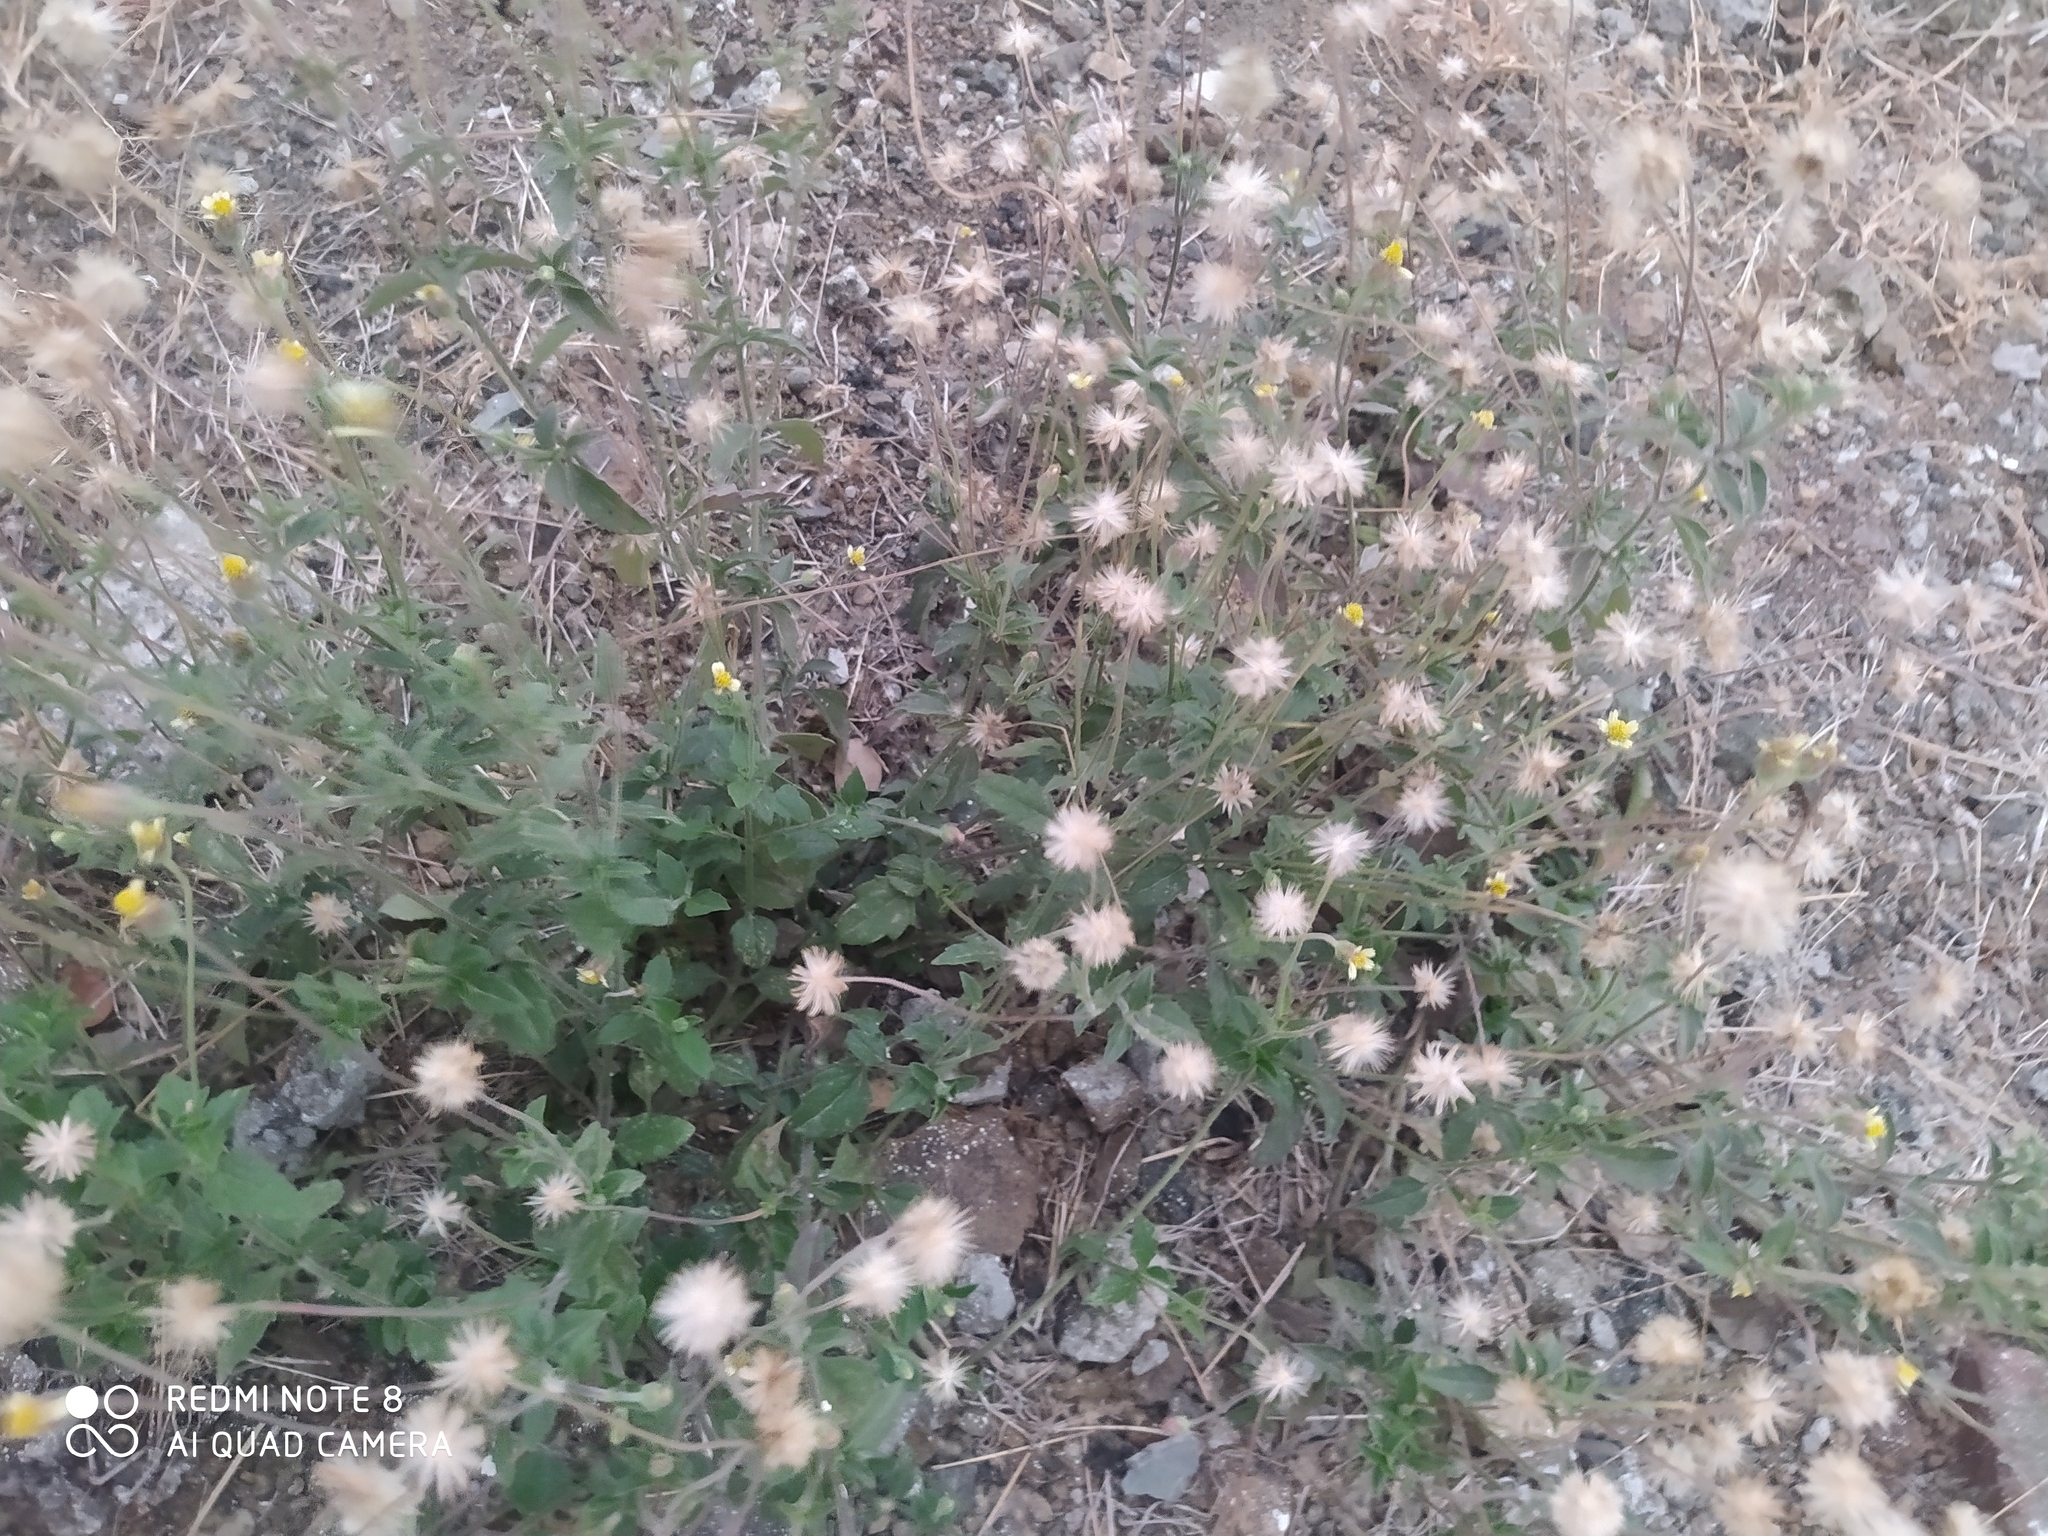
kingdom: Plantae
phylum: Tracheophyta
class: Magnoliopsida
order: Asterales
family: Asteraceae
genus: Tridax
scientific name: Tridax procumbens
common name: Coatbuttons
